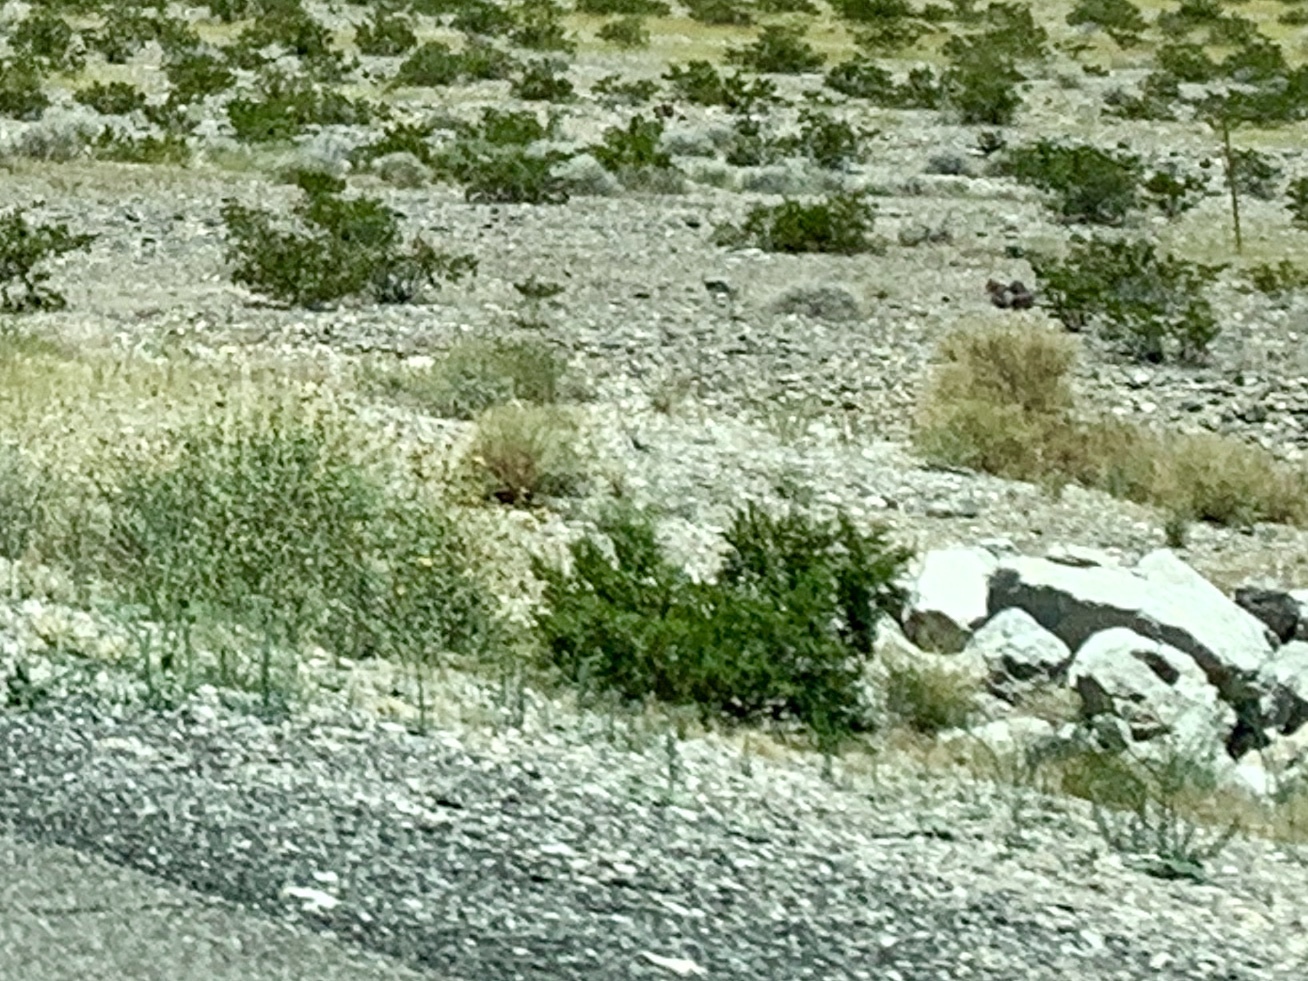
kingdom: Plantae
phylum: Tracheophyta
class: Magnoliopsida
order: Zygophyllales
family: Zygophyllaceae
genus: Larrea
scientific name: Larrea tridentata
